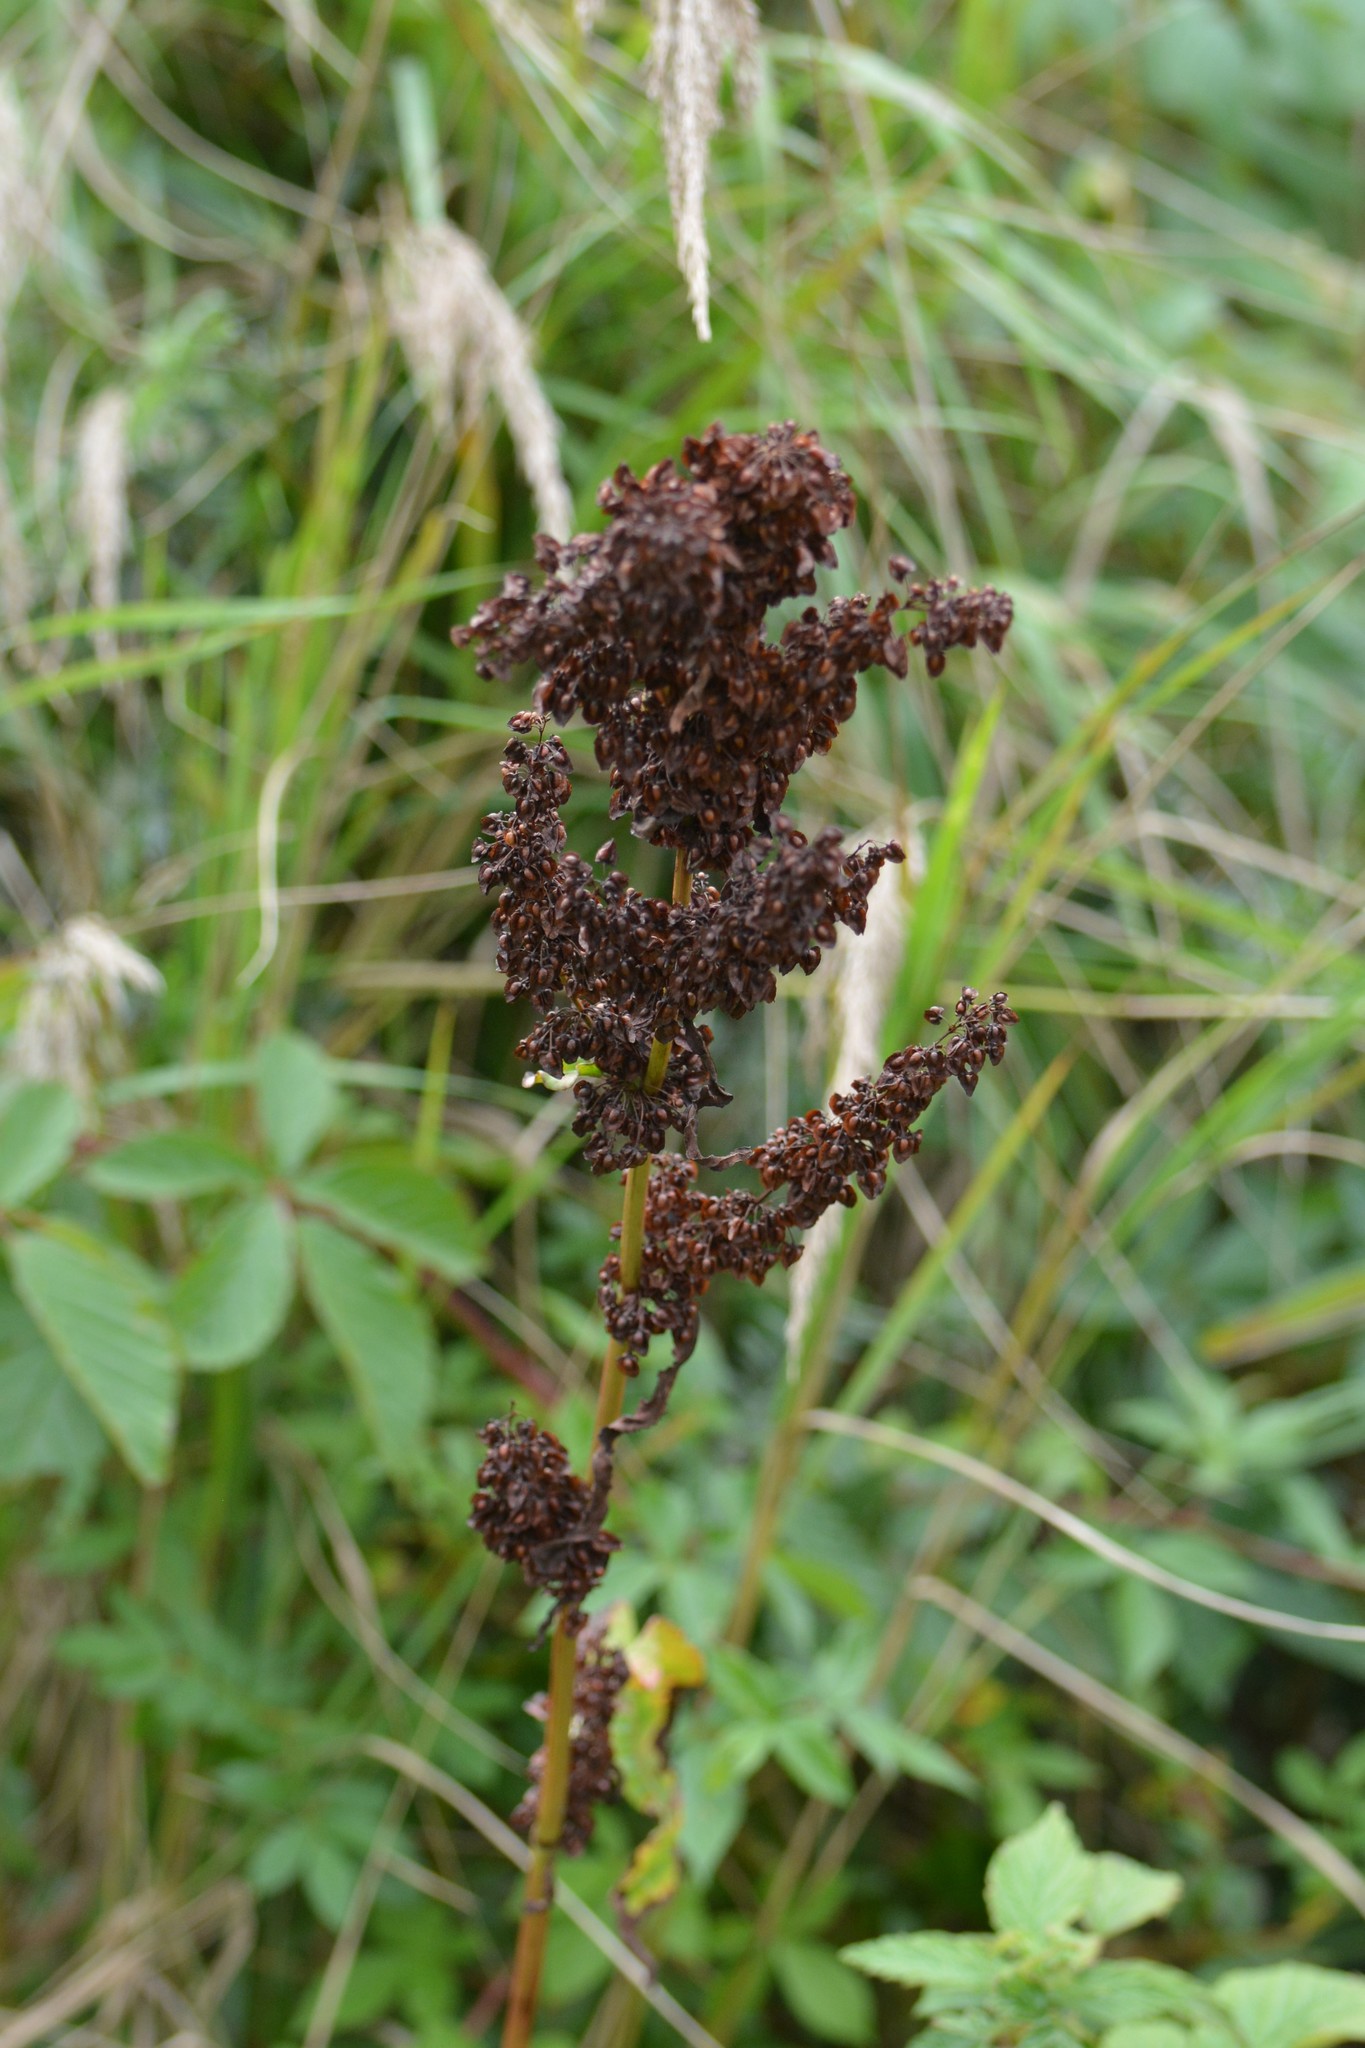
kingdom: Plantae
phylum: Tracheophyta
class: Magnoliopsida
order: Caryophyllales
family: Polygonaceae
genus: Rumex
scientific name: Rumex crispus
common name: Curled dock
